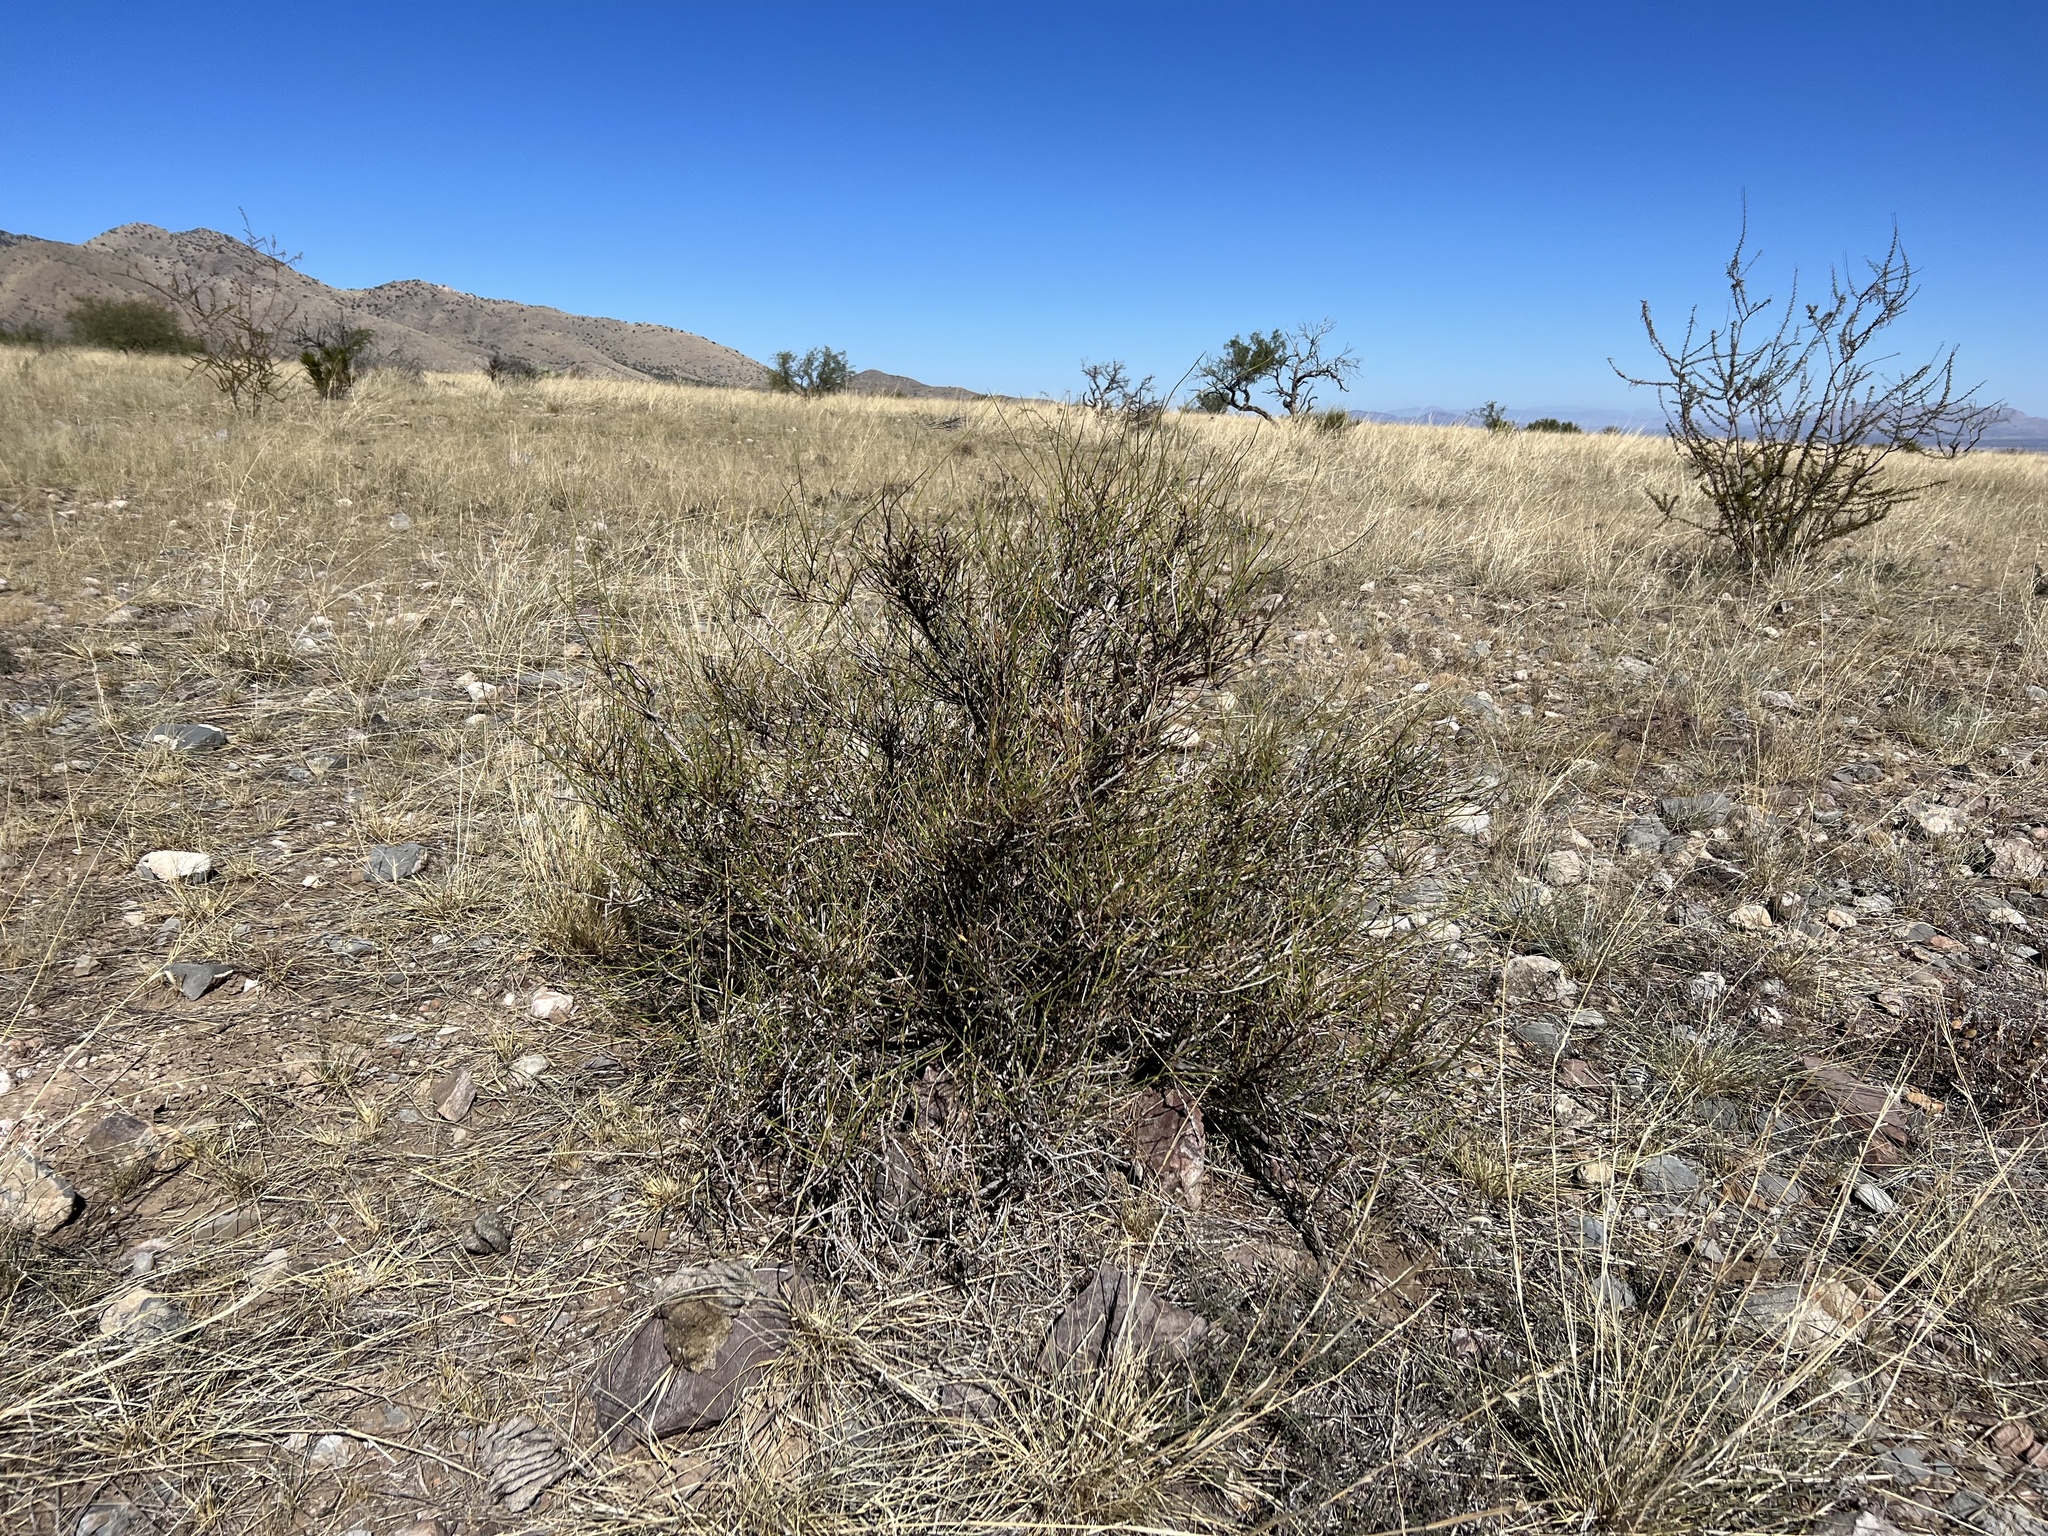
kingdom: Plantae
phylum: Tracheophyta
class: Gnetopsida
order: Ephedrales
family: Ephedraceae
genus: Ephedra
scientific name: Ephedra trifurca
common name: Mexican-tea
